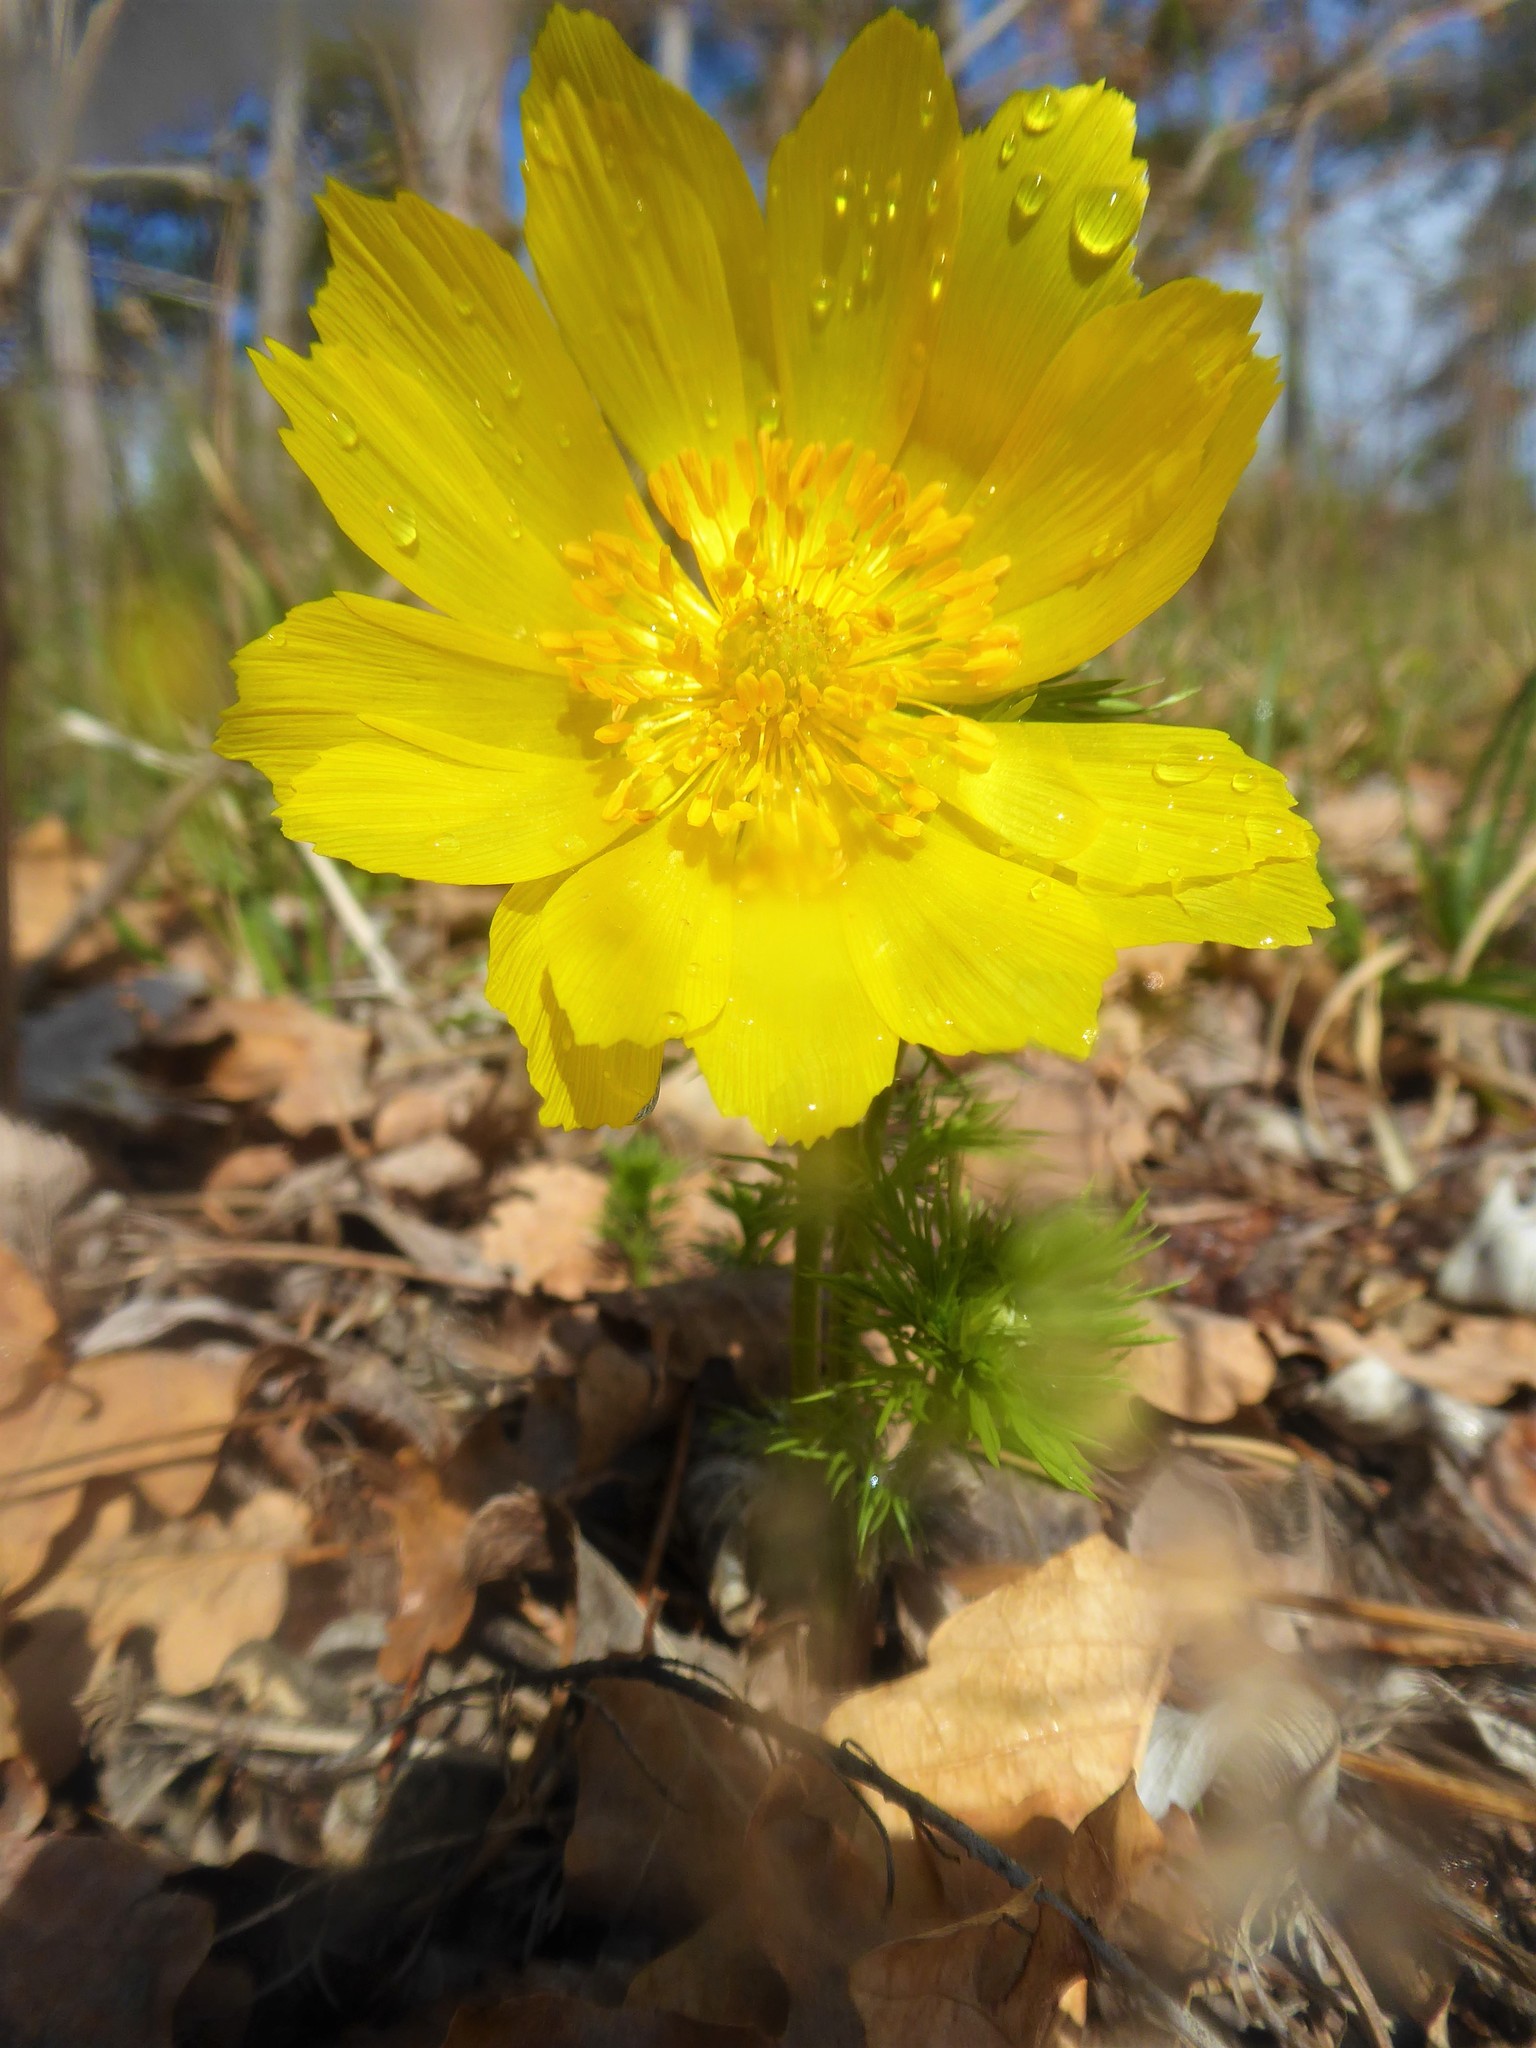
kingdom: Plantae
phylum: Tracheophyta
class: Magnoliopsida
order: Ranunculales
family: Ranunculaceae
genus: Adonis
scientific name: Adonis vernalis
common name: Yellow pheasants-eye
